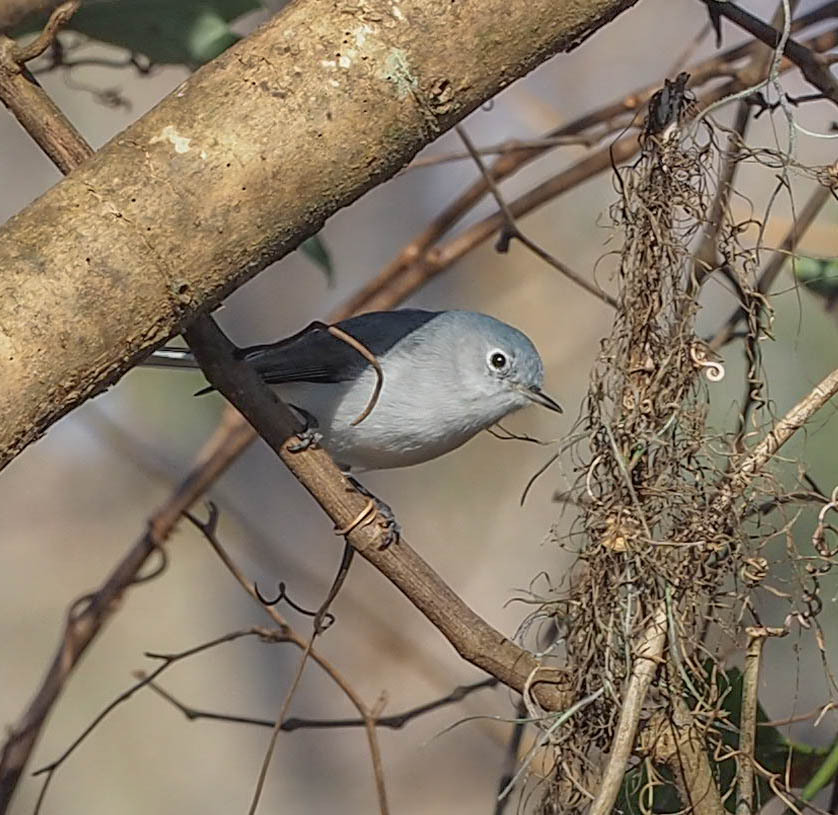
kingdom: Animalia
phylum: Chordata
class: Aves
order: Passeriformes
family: Polioptilidae
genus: Polioptila
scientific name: Polioptila caerulea
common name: Blue-gray gnatcatcher
